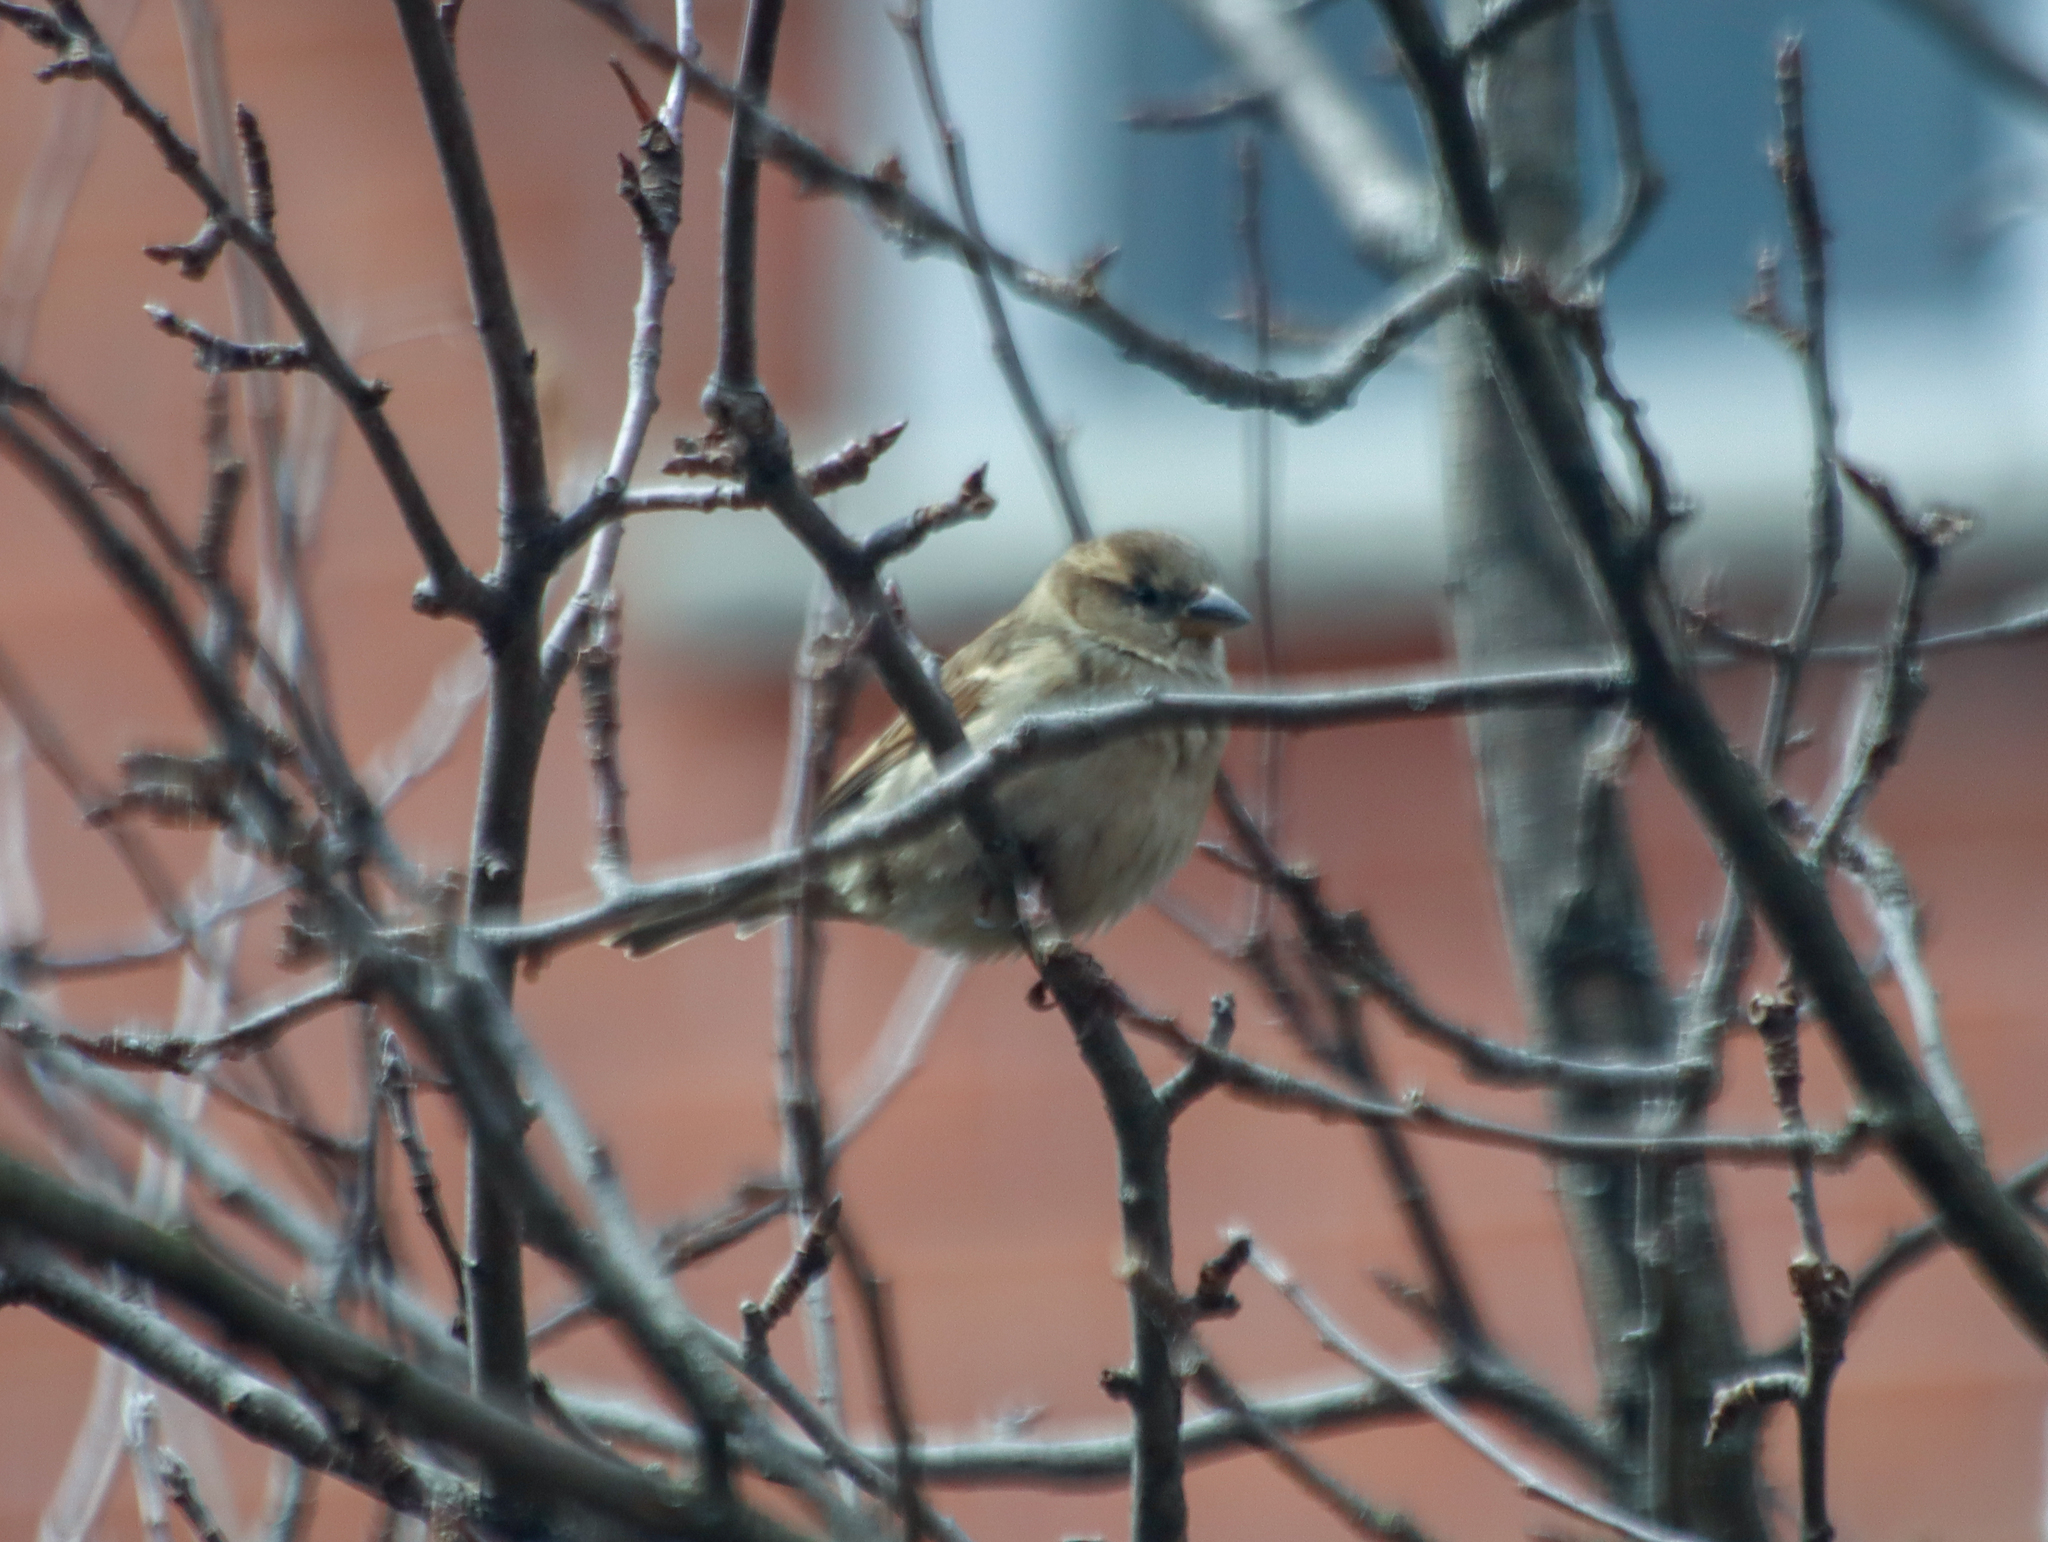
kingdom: Animalia
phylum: Chordata
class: Aves
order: Passeriformes
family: Passeridae
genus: Passer
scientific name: Passer domesticus
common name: House sparrow
